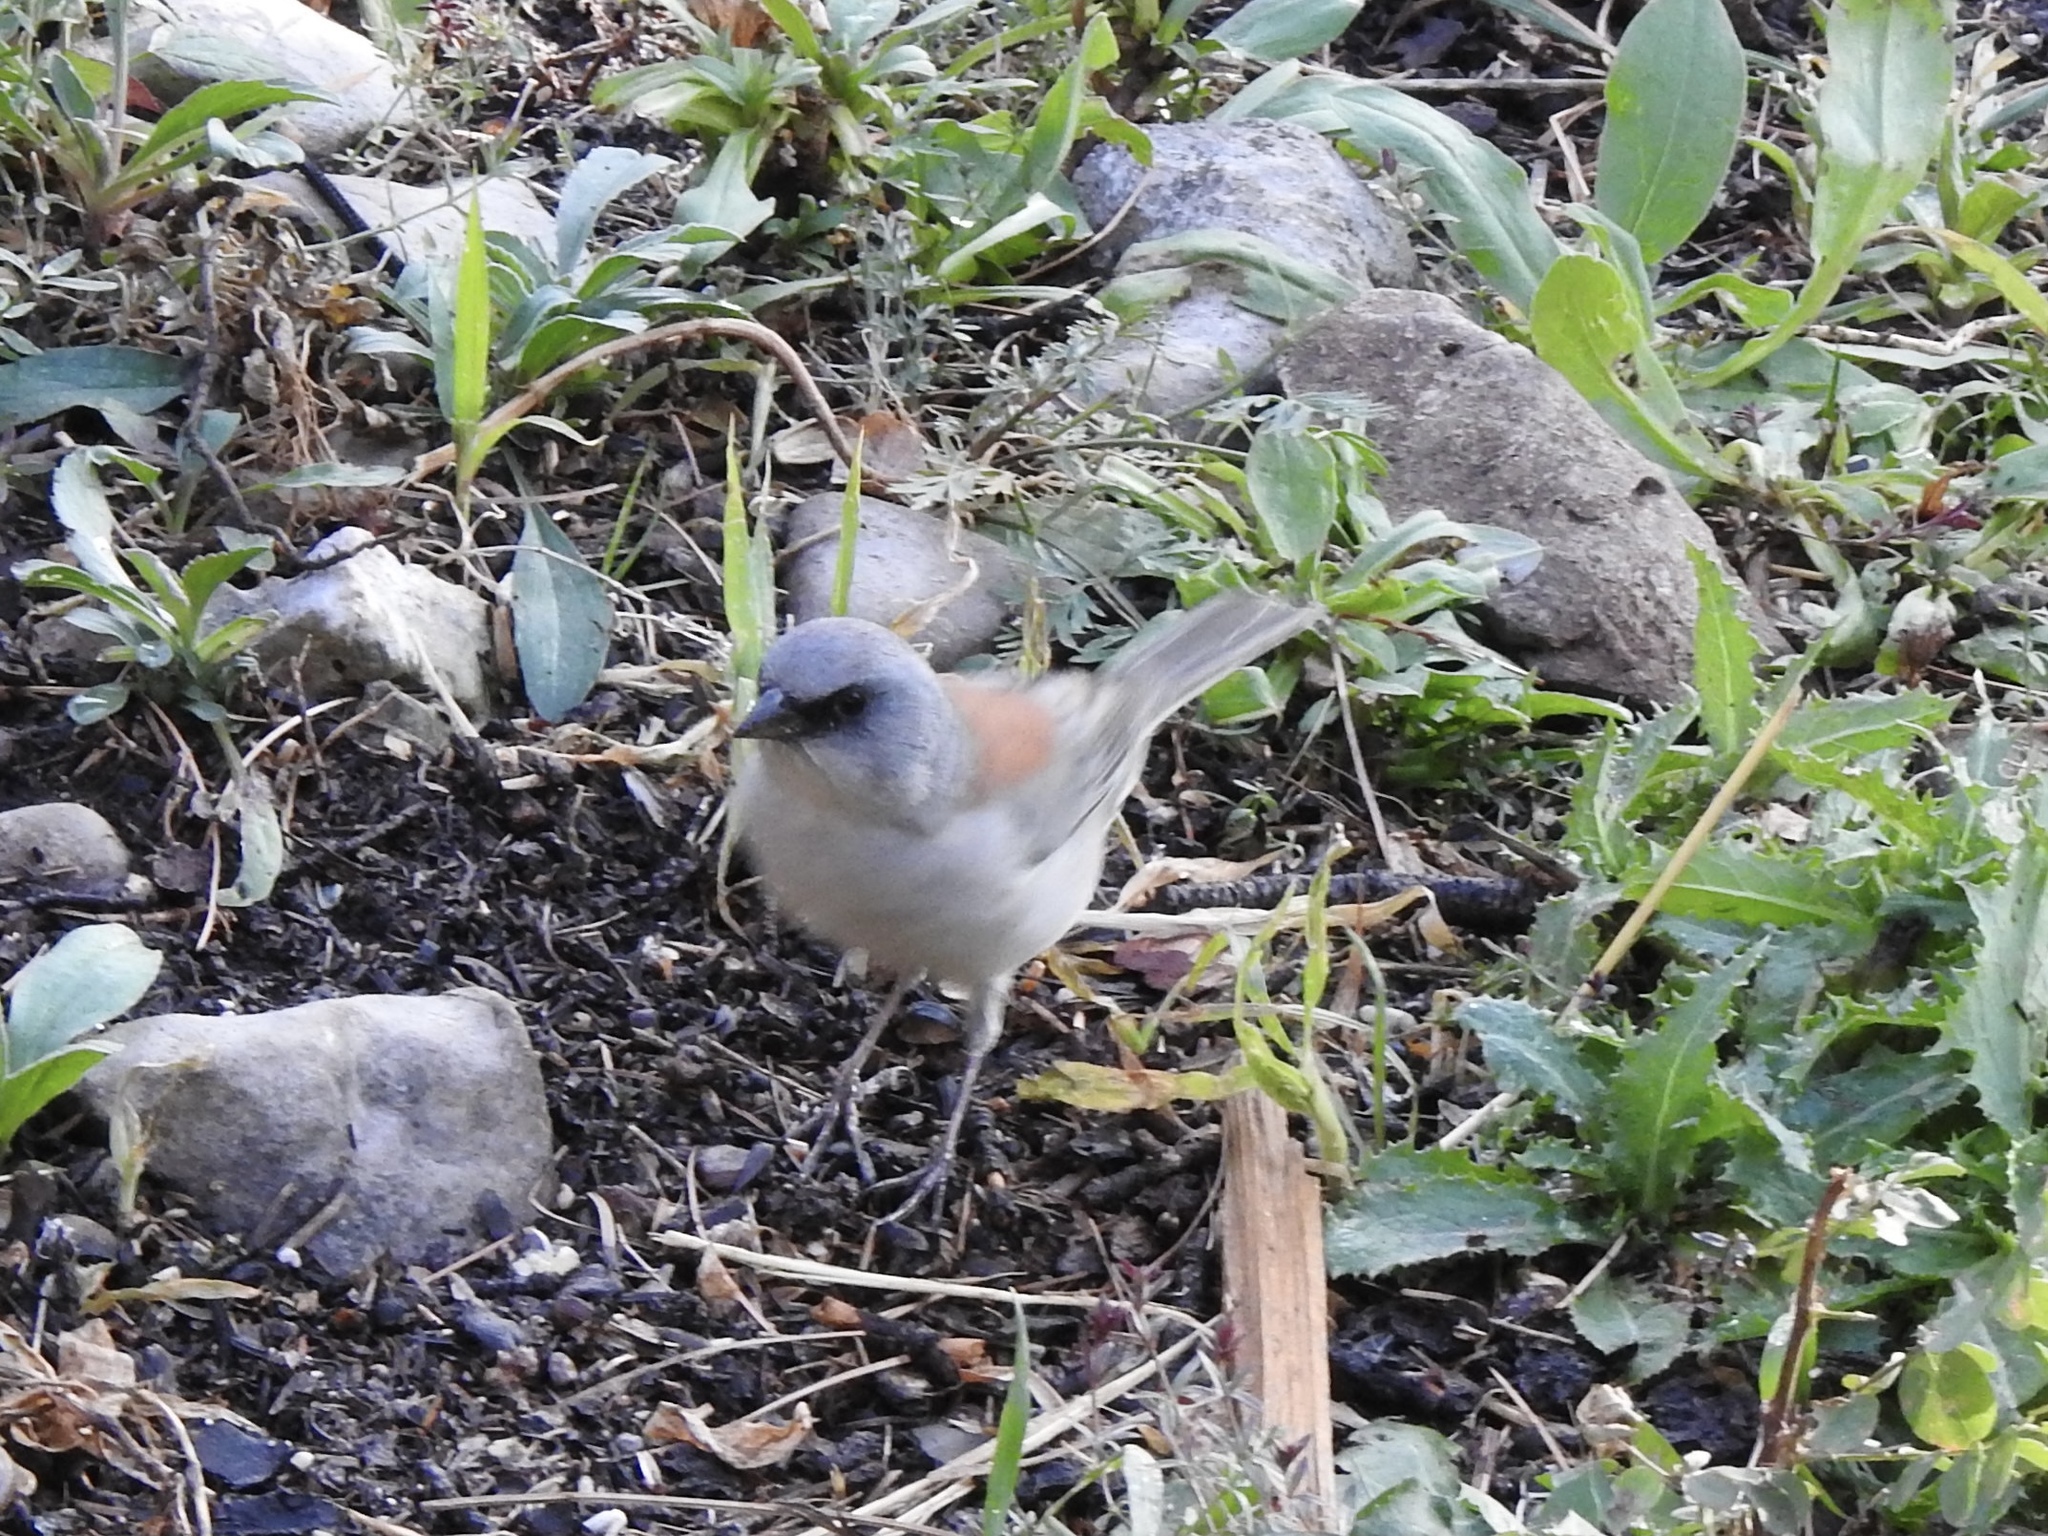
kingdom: Animalia
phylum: Chordata
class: Aves
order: Passeriformes
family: Passerellidae
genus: Junco
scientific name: Junco hyemalis
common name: Dark-eyed junco
